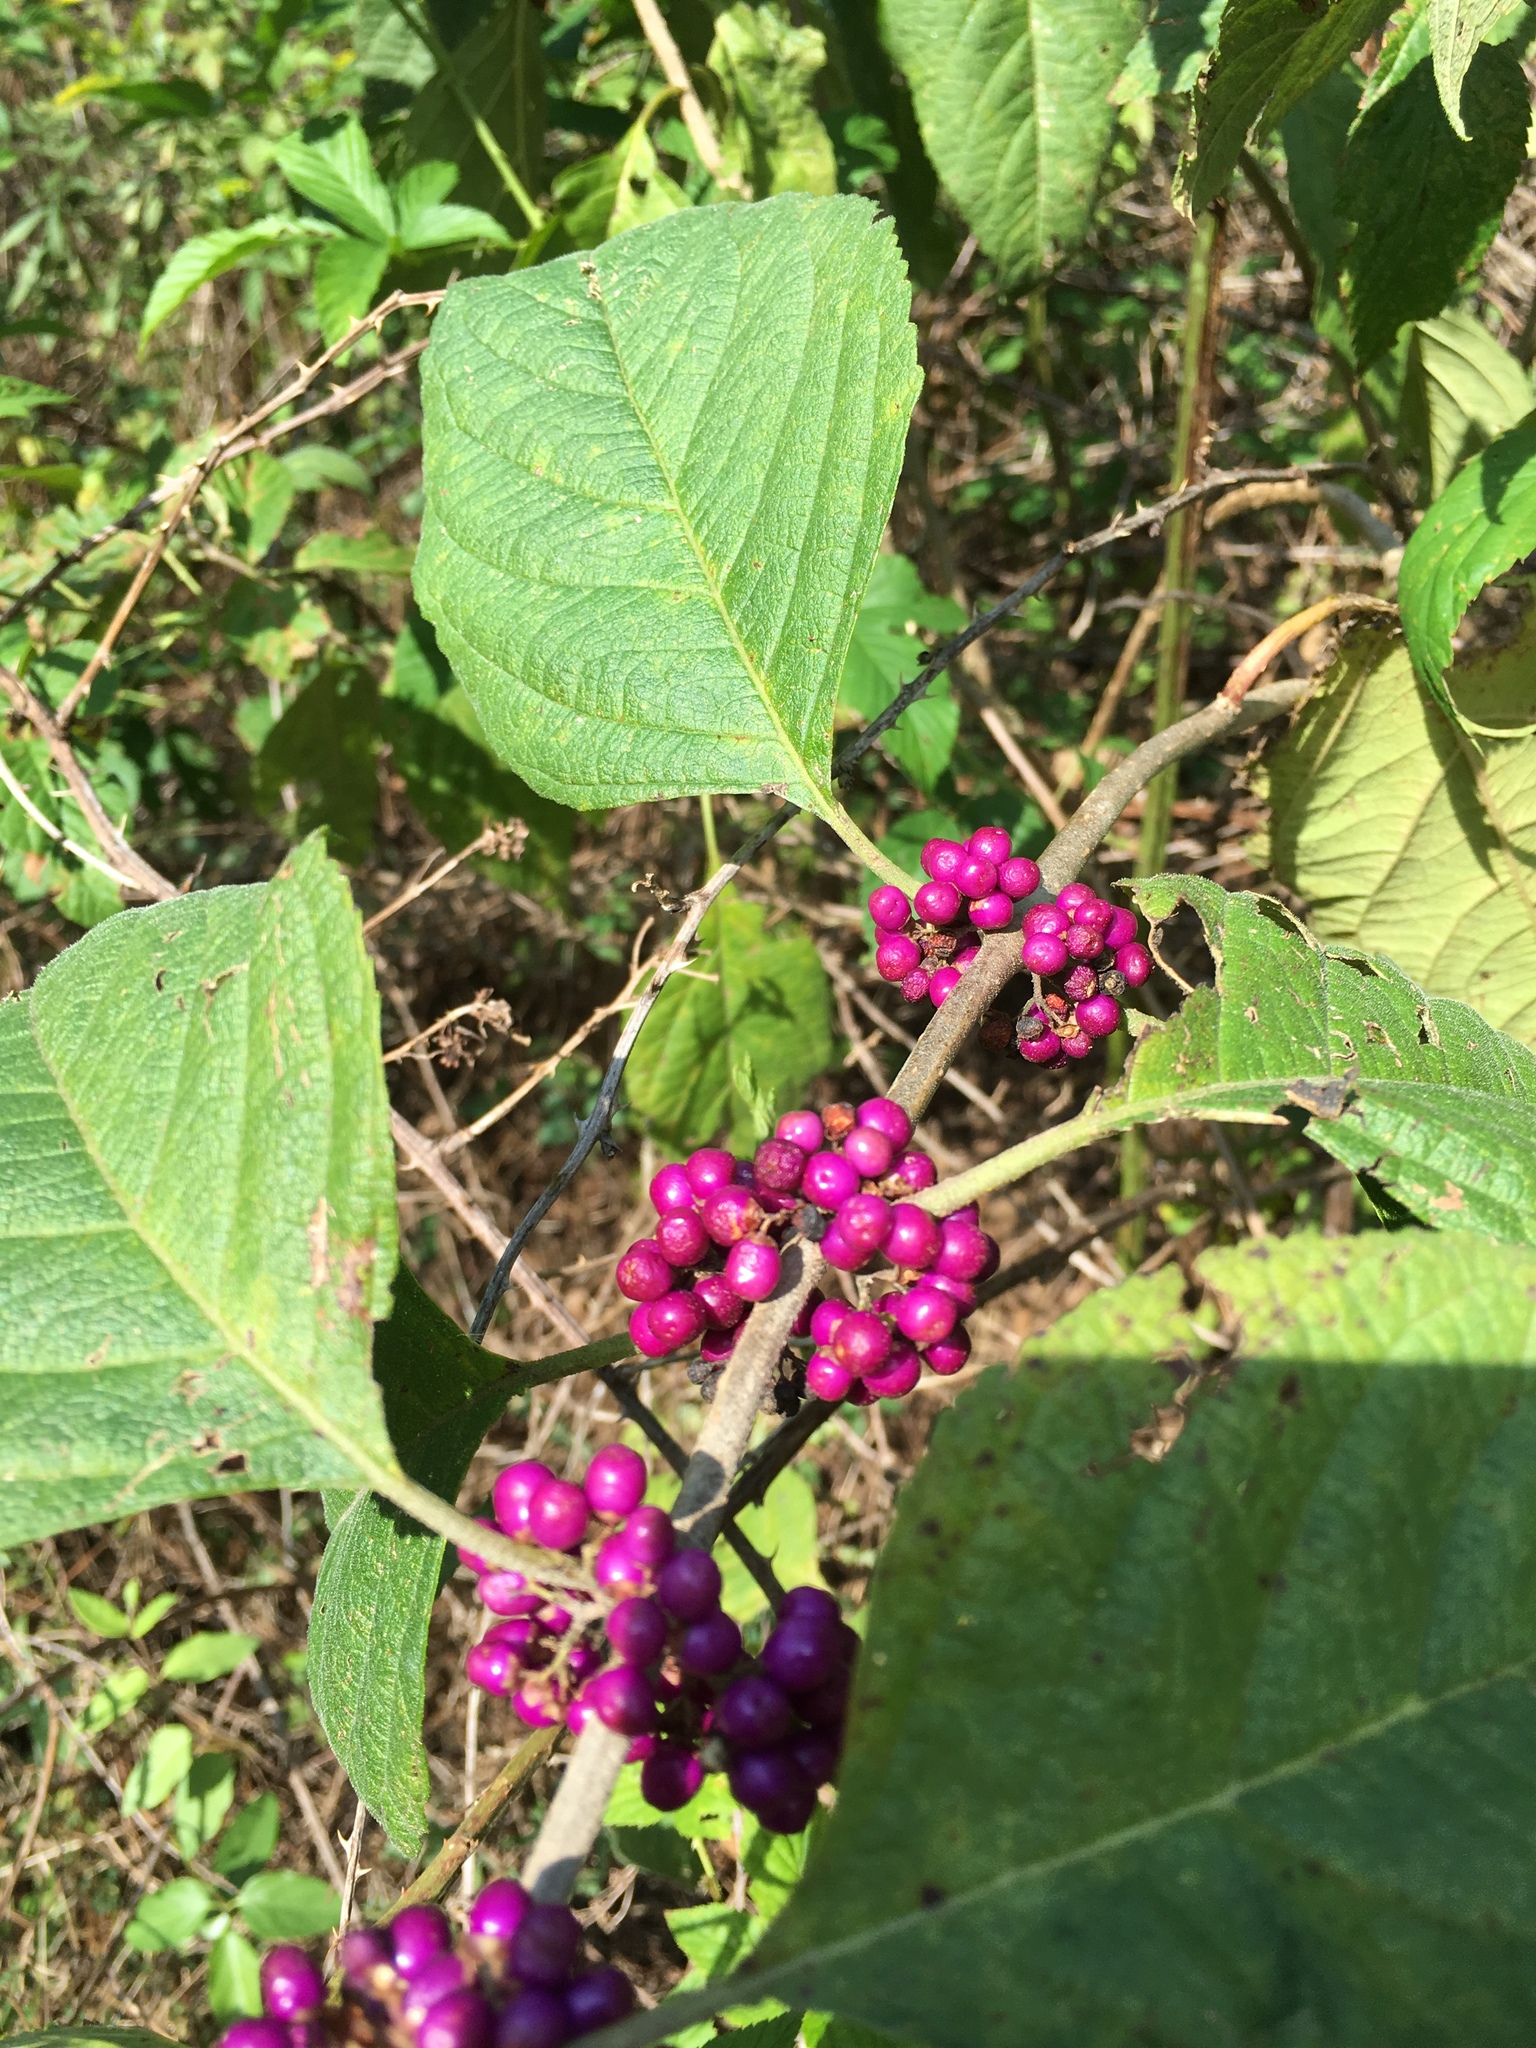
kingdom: Plantae
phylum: Tracheophyta
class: Magnoliopsida
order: Lamiales
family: Lamiaceae
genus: Callicarpa
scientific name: Callicarpa americana
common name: American beautyberry
